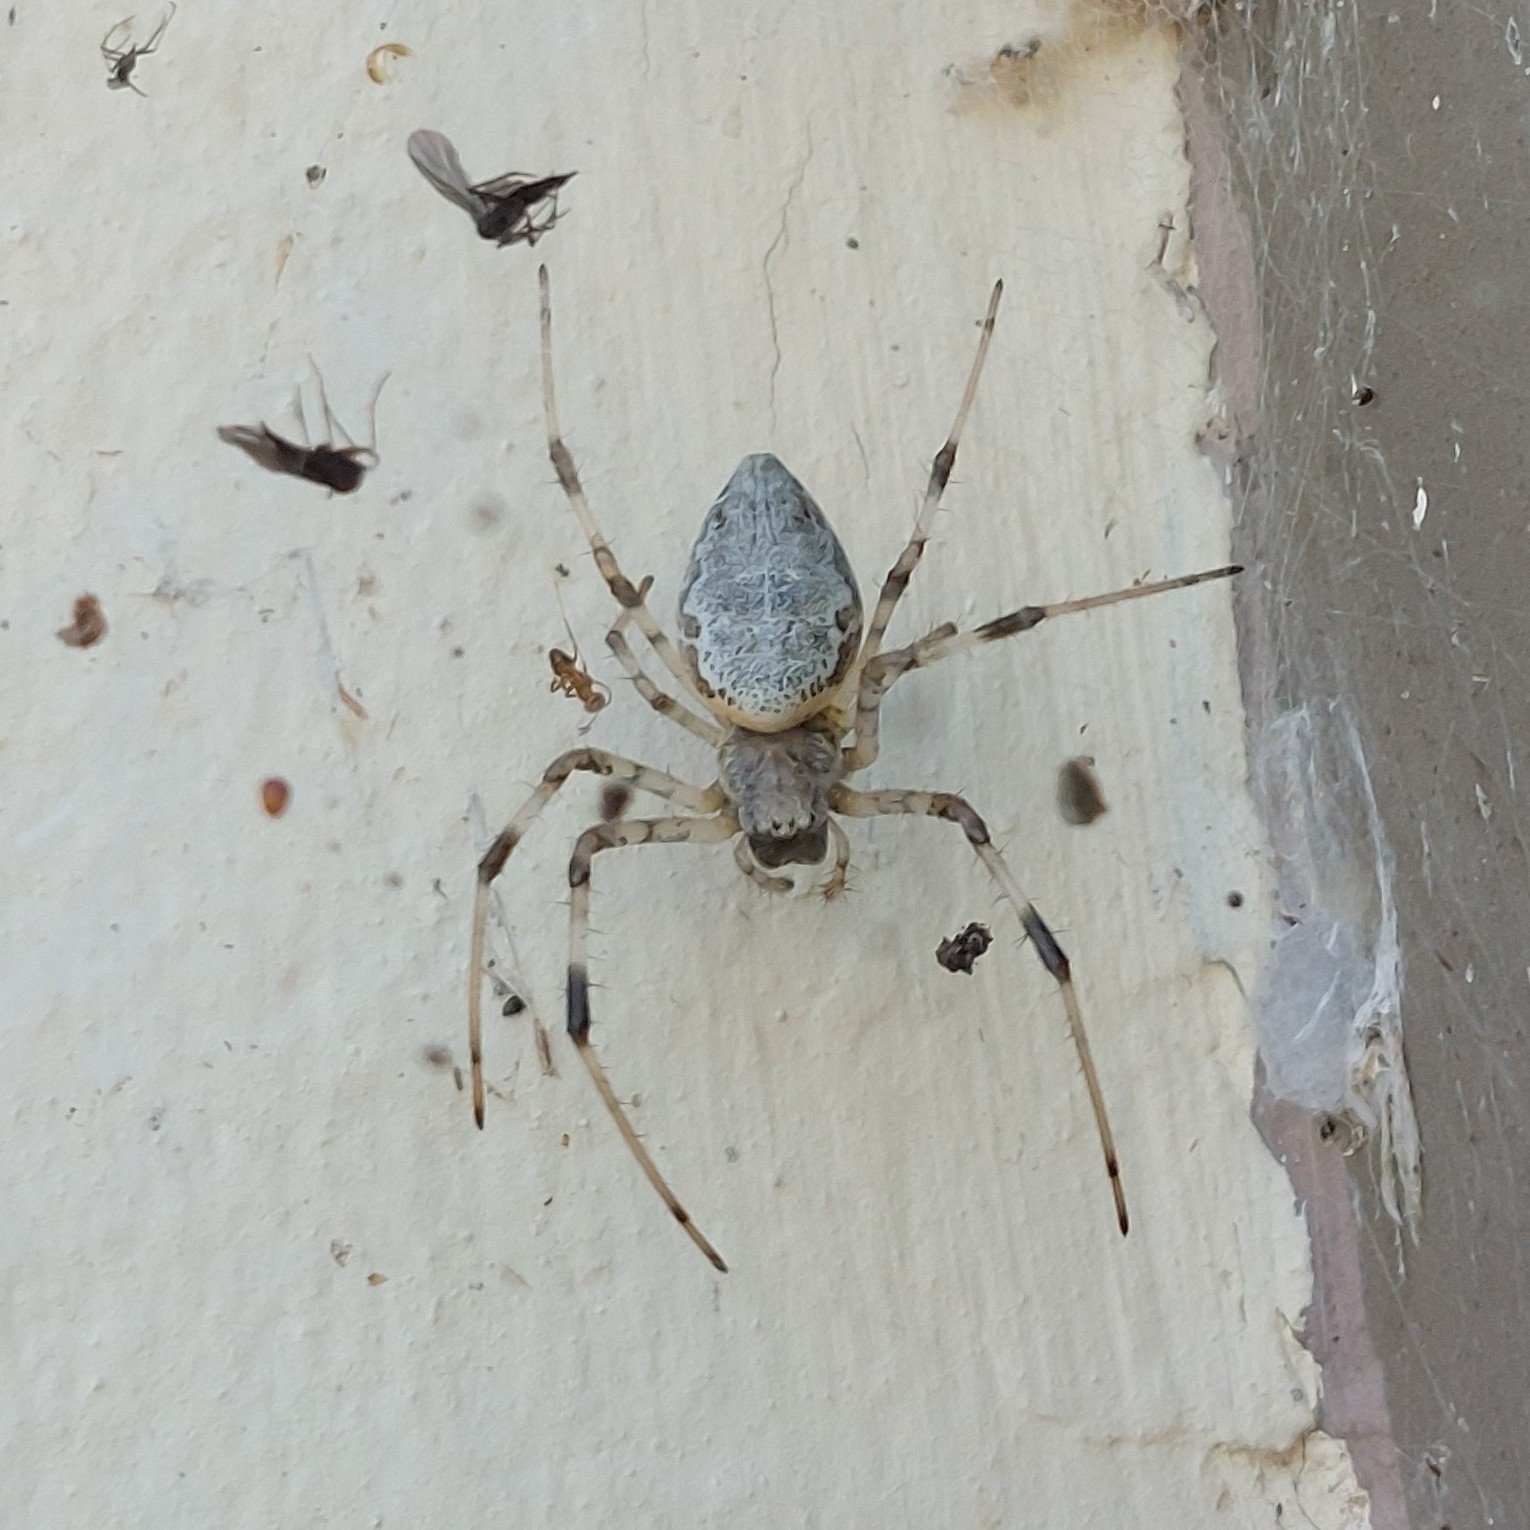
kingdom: Animalia
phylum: Arthropoda
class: Arachnida
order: Araneae
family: Araneidae
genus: Nephilingis
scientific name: Nephilingis cruentata
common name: African hermit spider
